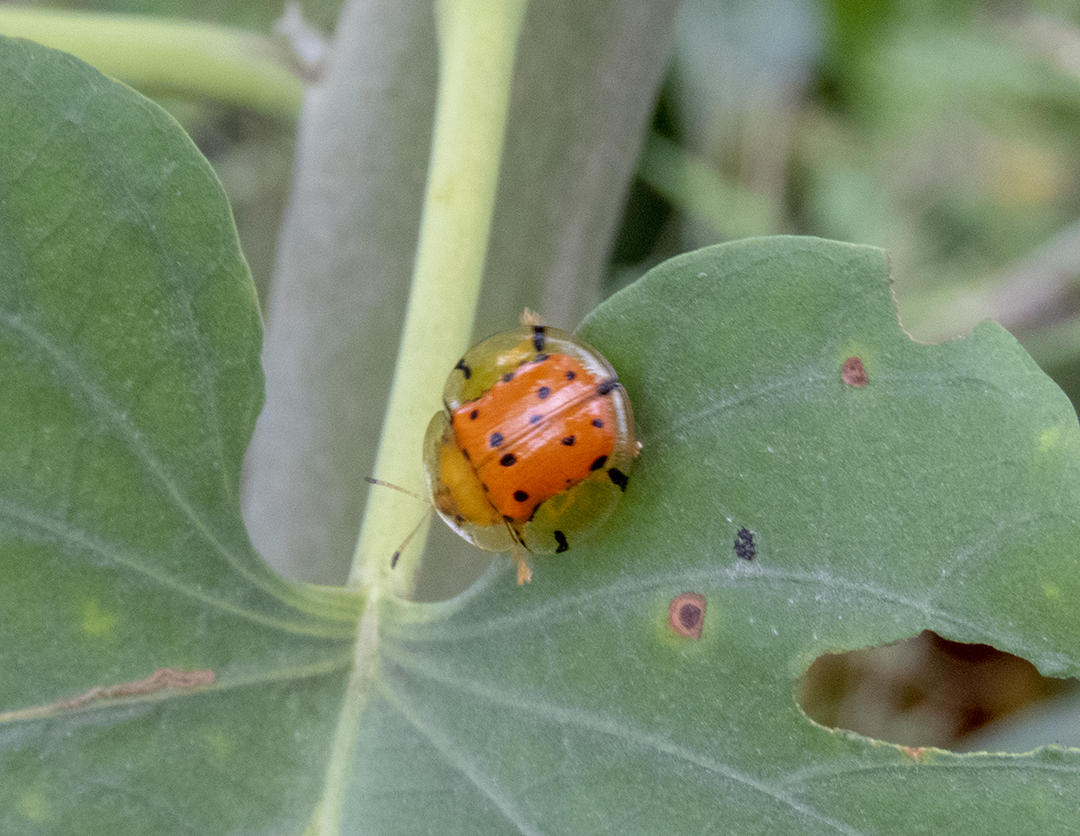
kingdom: Animalia
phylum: Arthropoda
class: Insecta
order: Coleoptera
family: Chrysomelidae
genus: Aspidimorpha
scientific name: Aspidimorpha miliaris
